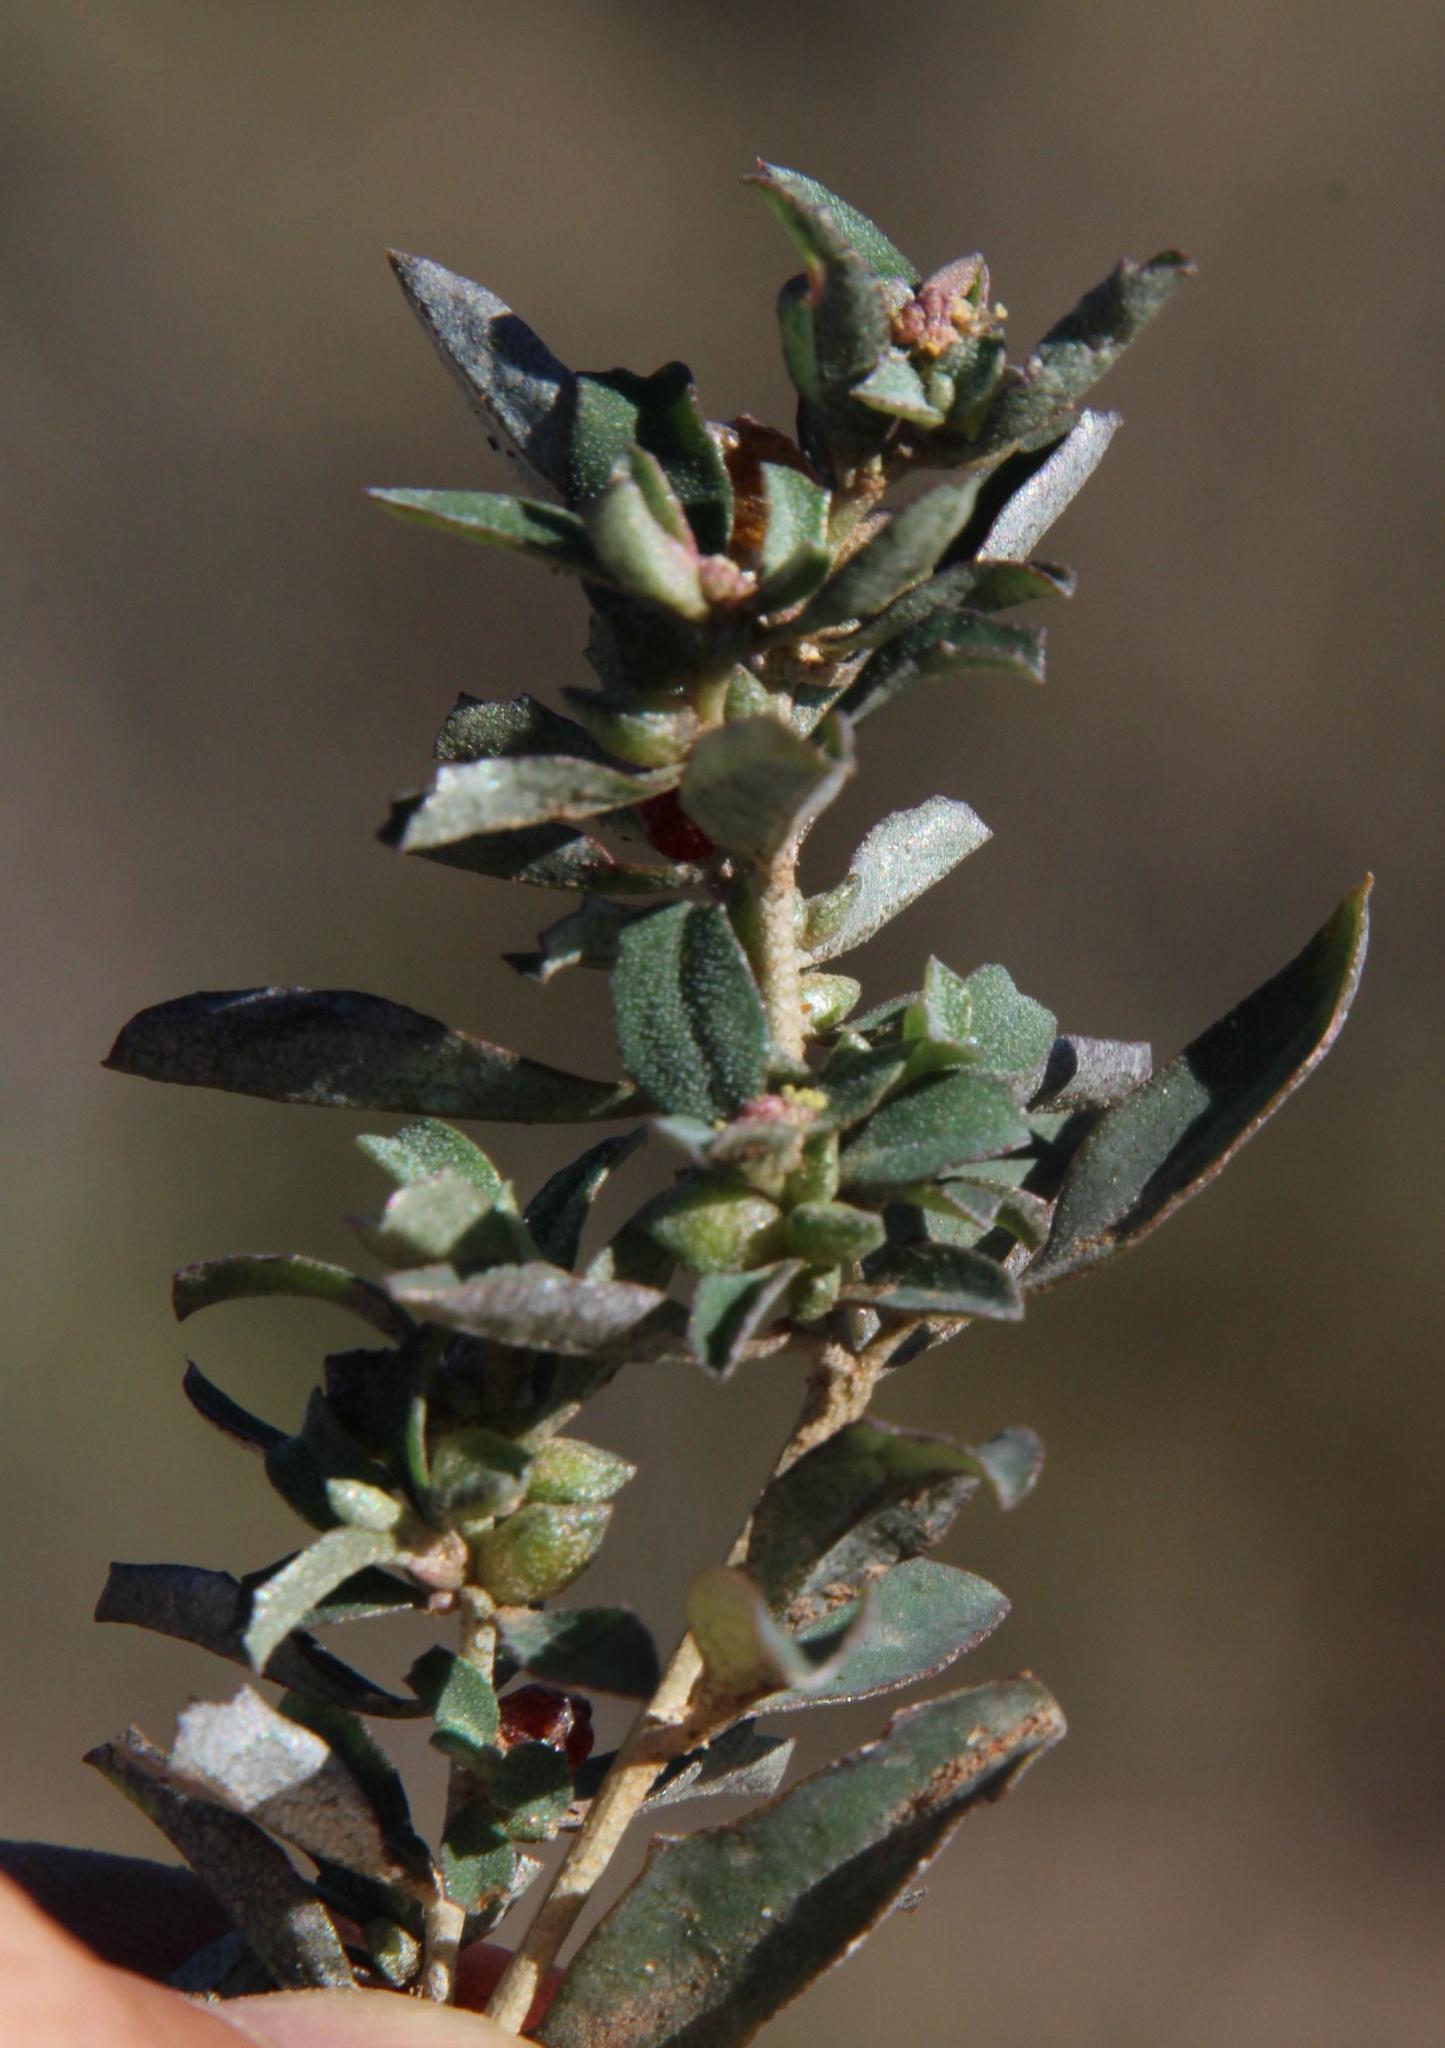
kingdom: Plantae
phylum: Tracheophyta
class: Magnoliopsida
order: Caryophyllales
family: Amaranthaceae
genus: Atriplex
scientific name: Atriplex semibaccata
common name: Australian saltbush
